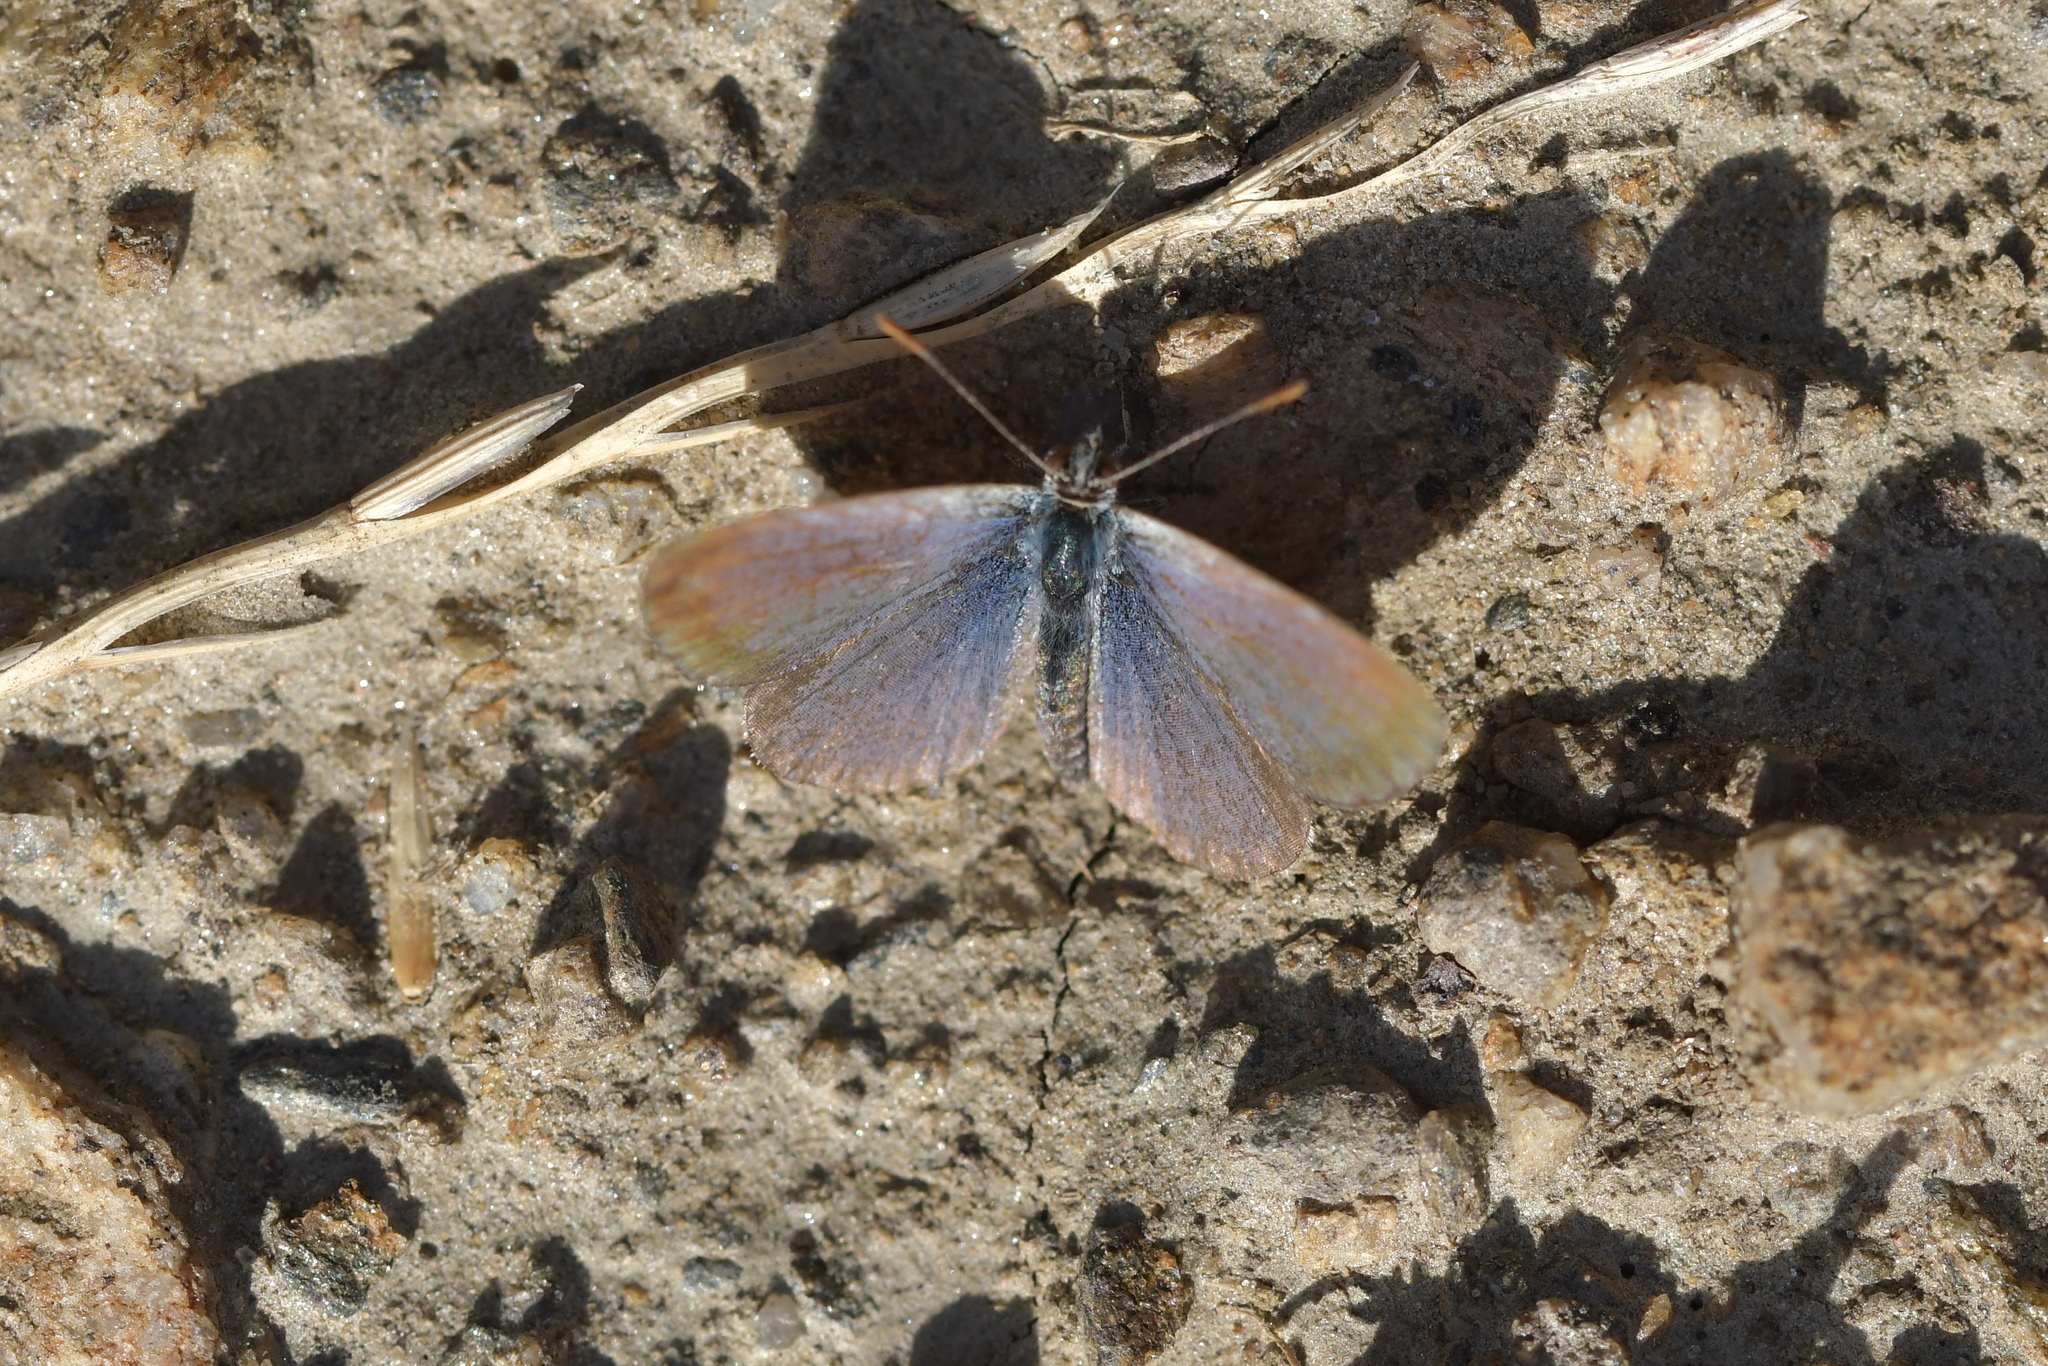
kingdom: Animalia
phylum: Arthropoda
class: Insecta
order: Lepidoptera
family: Lycaenidae
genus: Zizina
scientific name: Zizina oxleyi
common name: Southern blue
